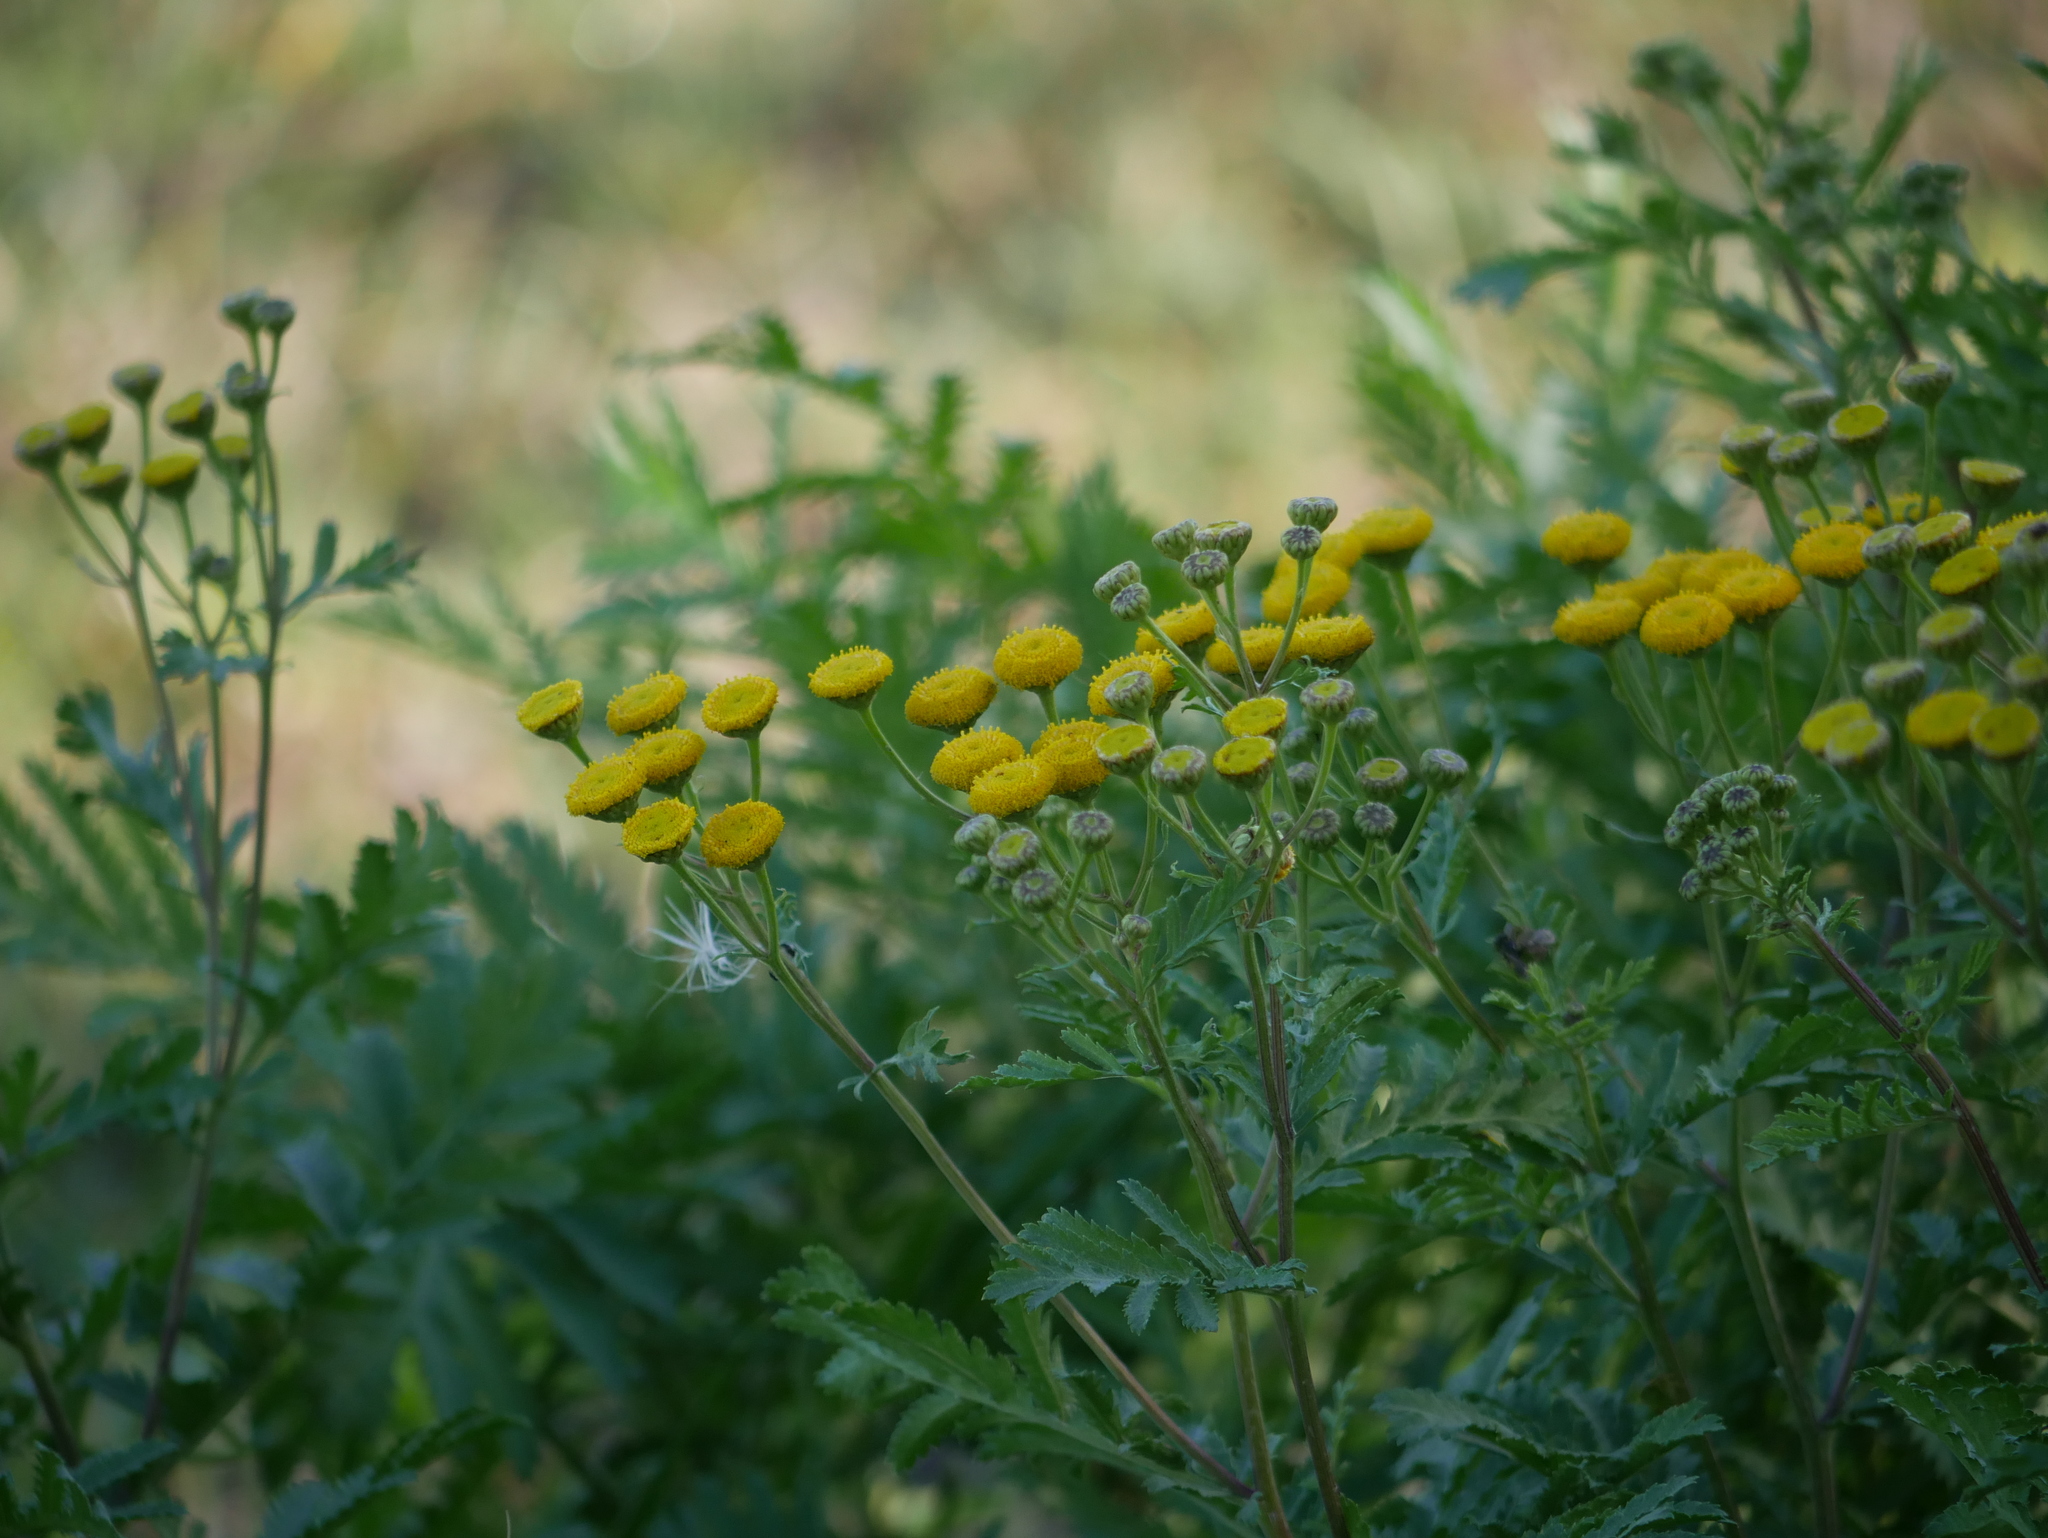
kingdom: Plantae
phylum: Tracheophyta
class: Magnoliopsida
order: Asterales
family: Asteraceae
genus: Tanacetum
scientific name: Tanacetum vulgare
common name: Common tansy
